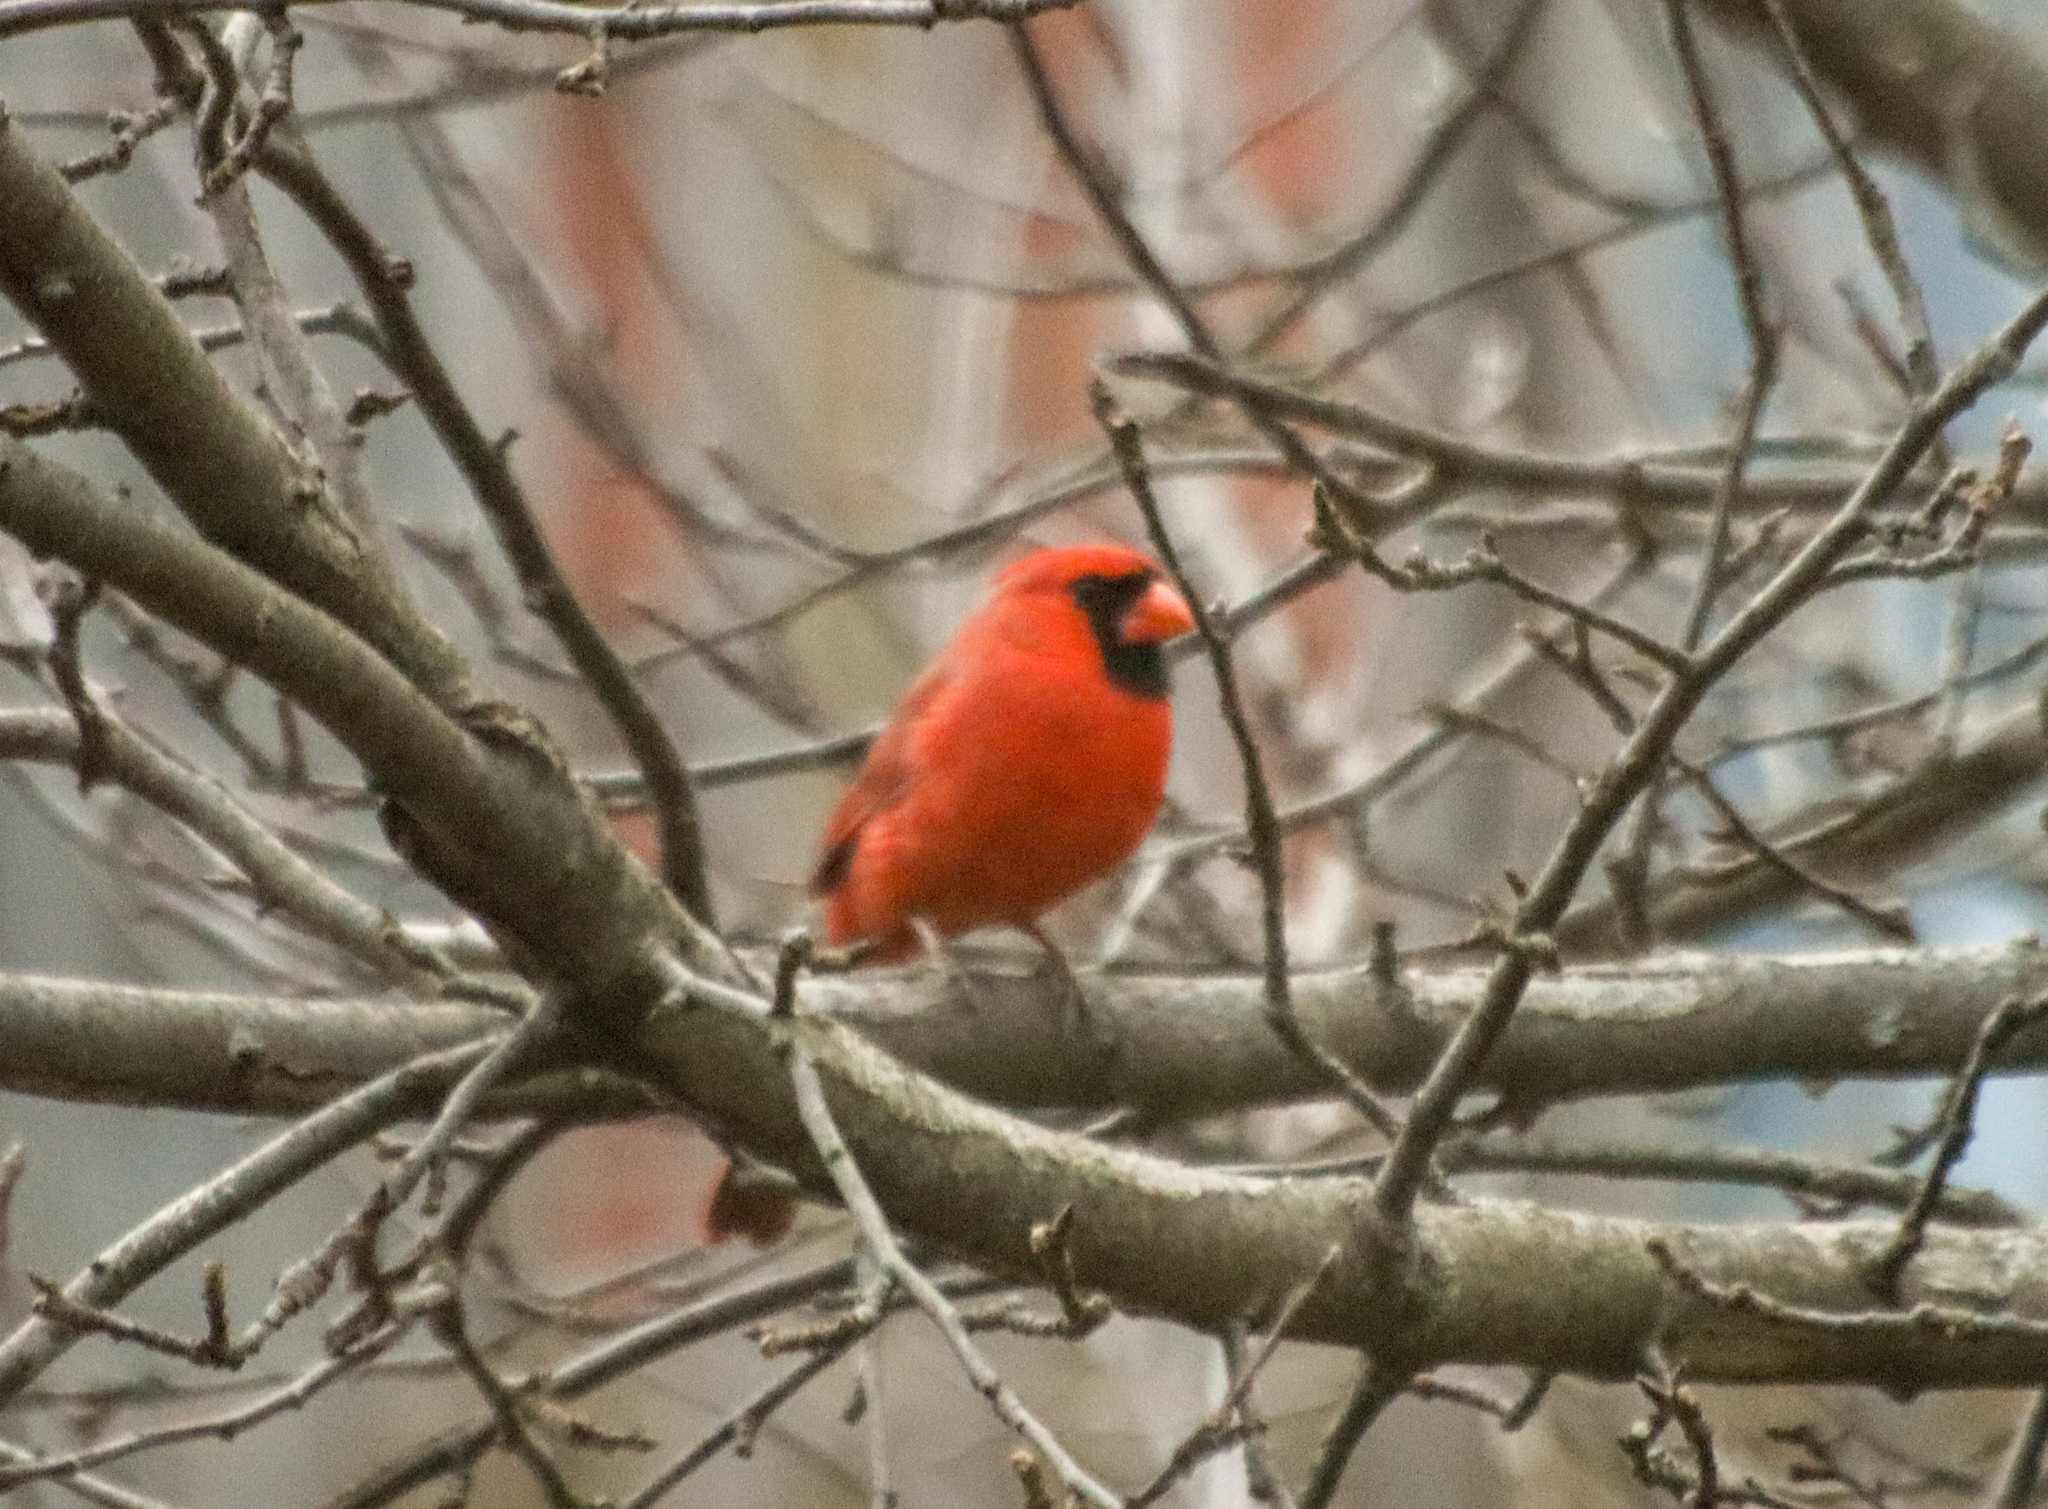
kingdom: Animalia
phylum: Chordata
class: Aves
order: Passeriformes
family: Cardinalidae
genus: Cardinalis
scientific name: Cardinalis cardinalis
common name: Northern cardinal
